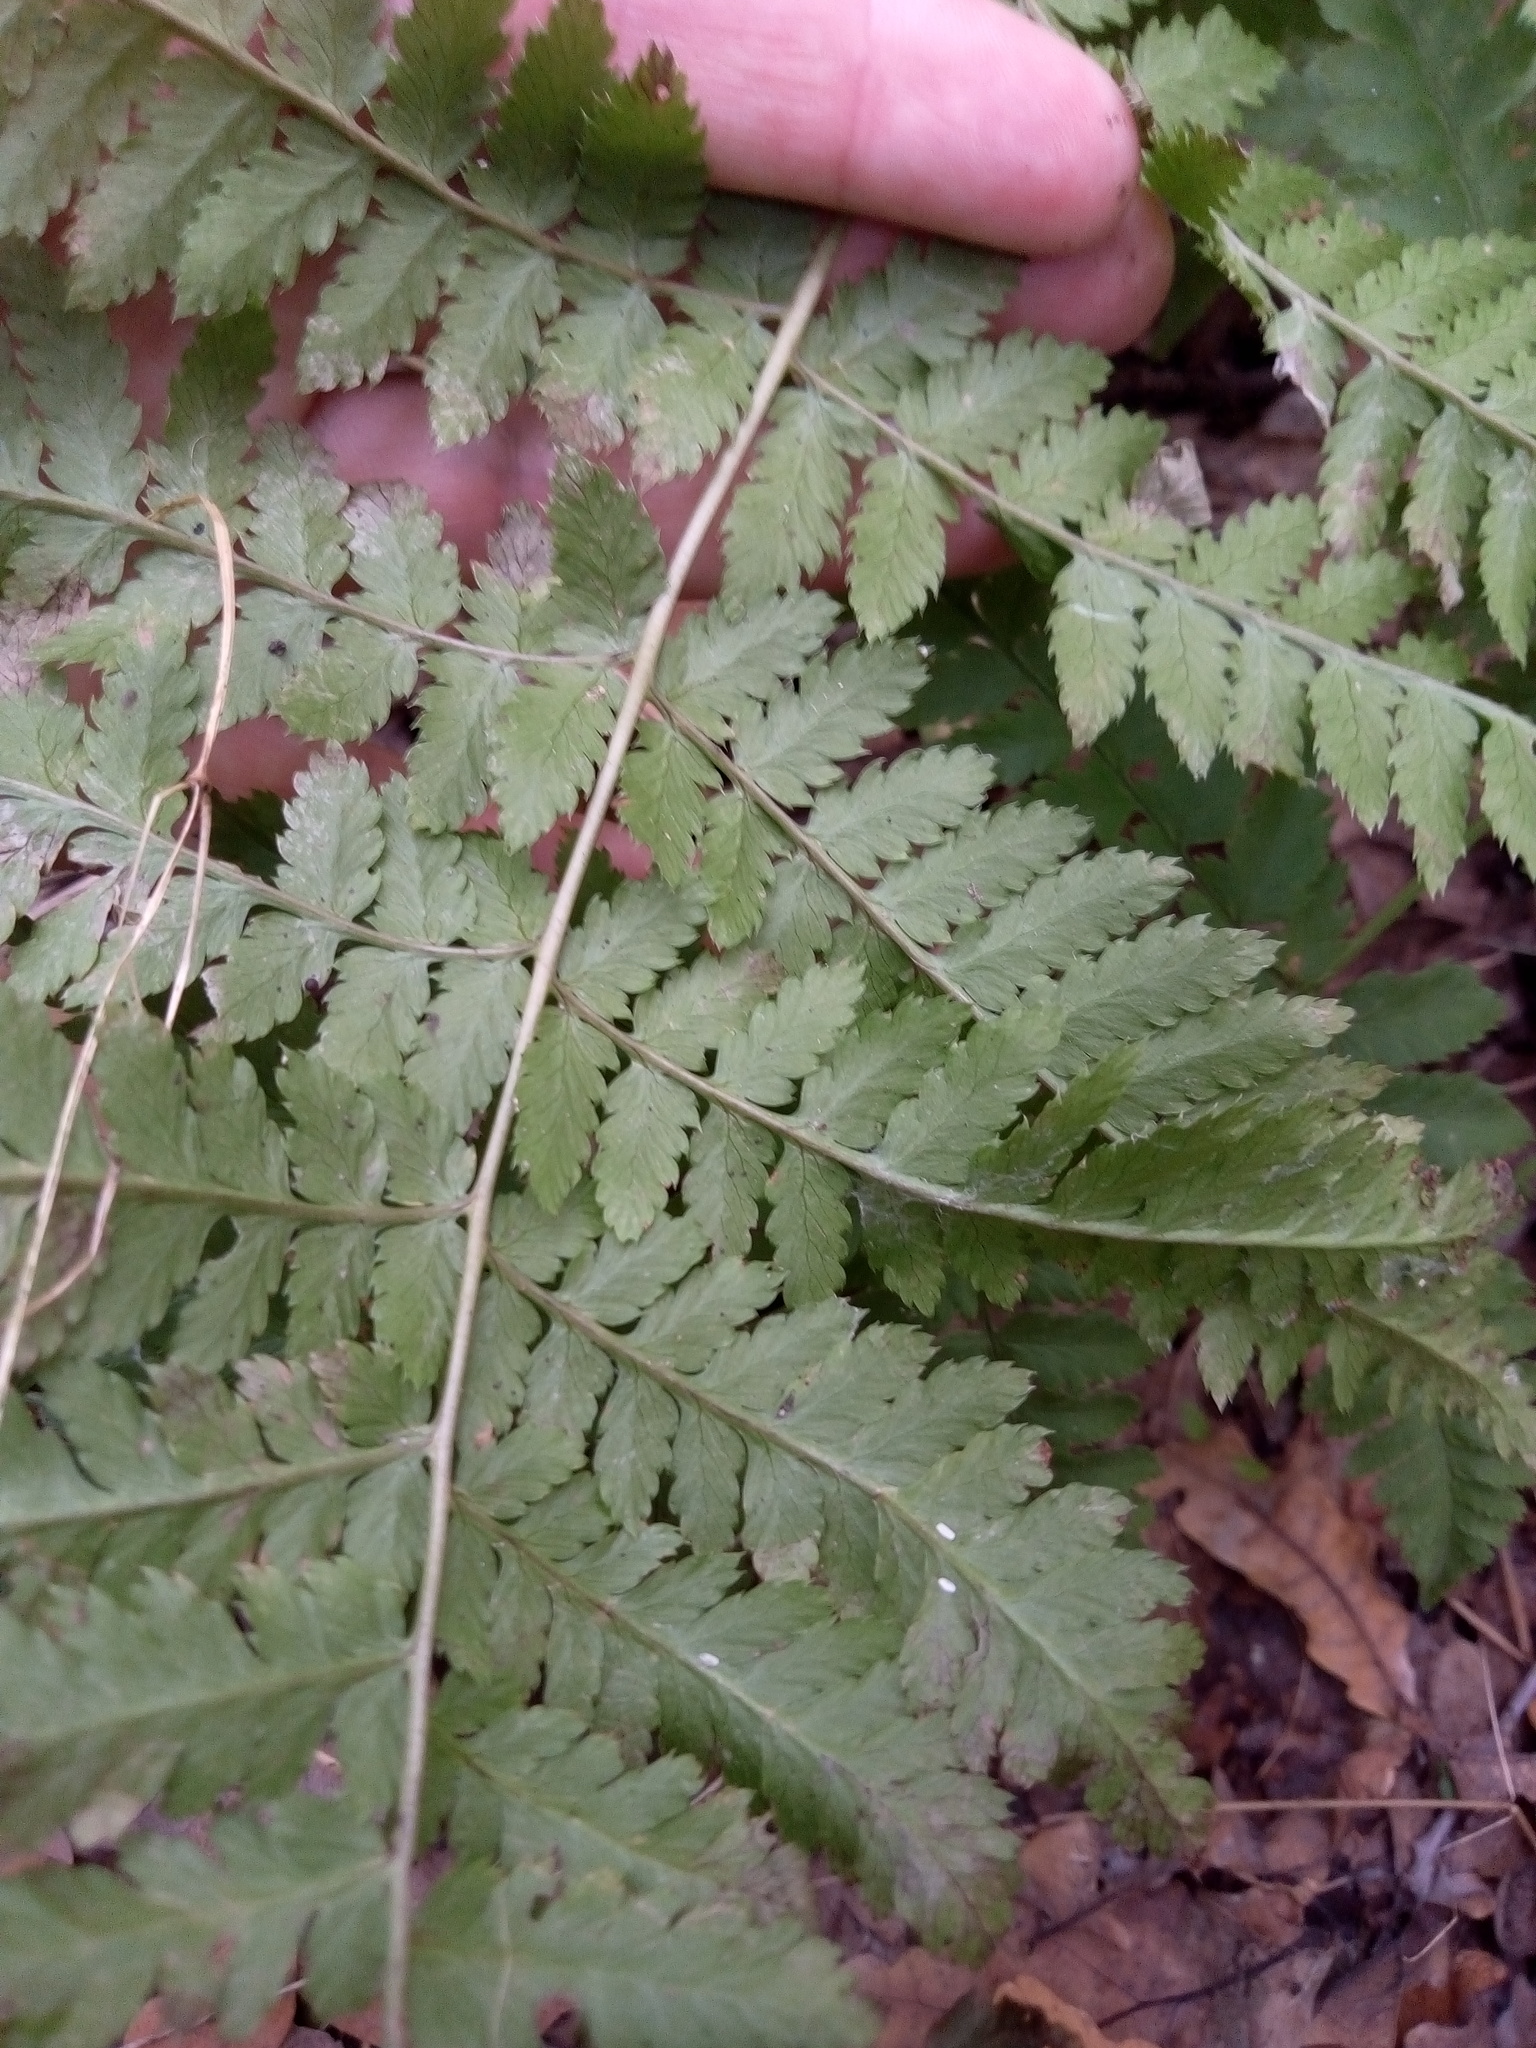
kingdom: Plantae
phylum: Tracheophyta
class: Polypodiopsida
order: Polypodiales
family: Dryopteridaceae
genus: Dryopteris
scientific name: Dryopteris carthusiana
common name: Narrow buckler-fern
